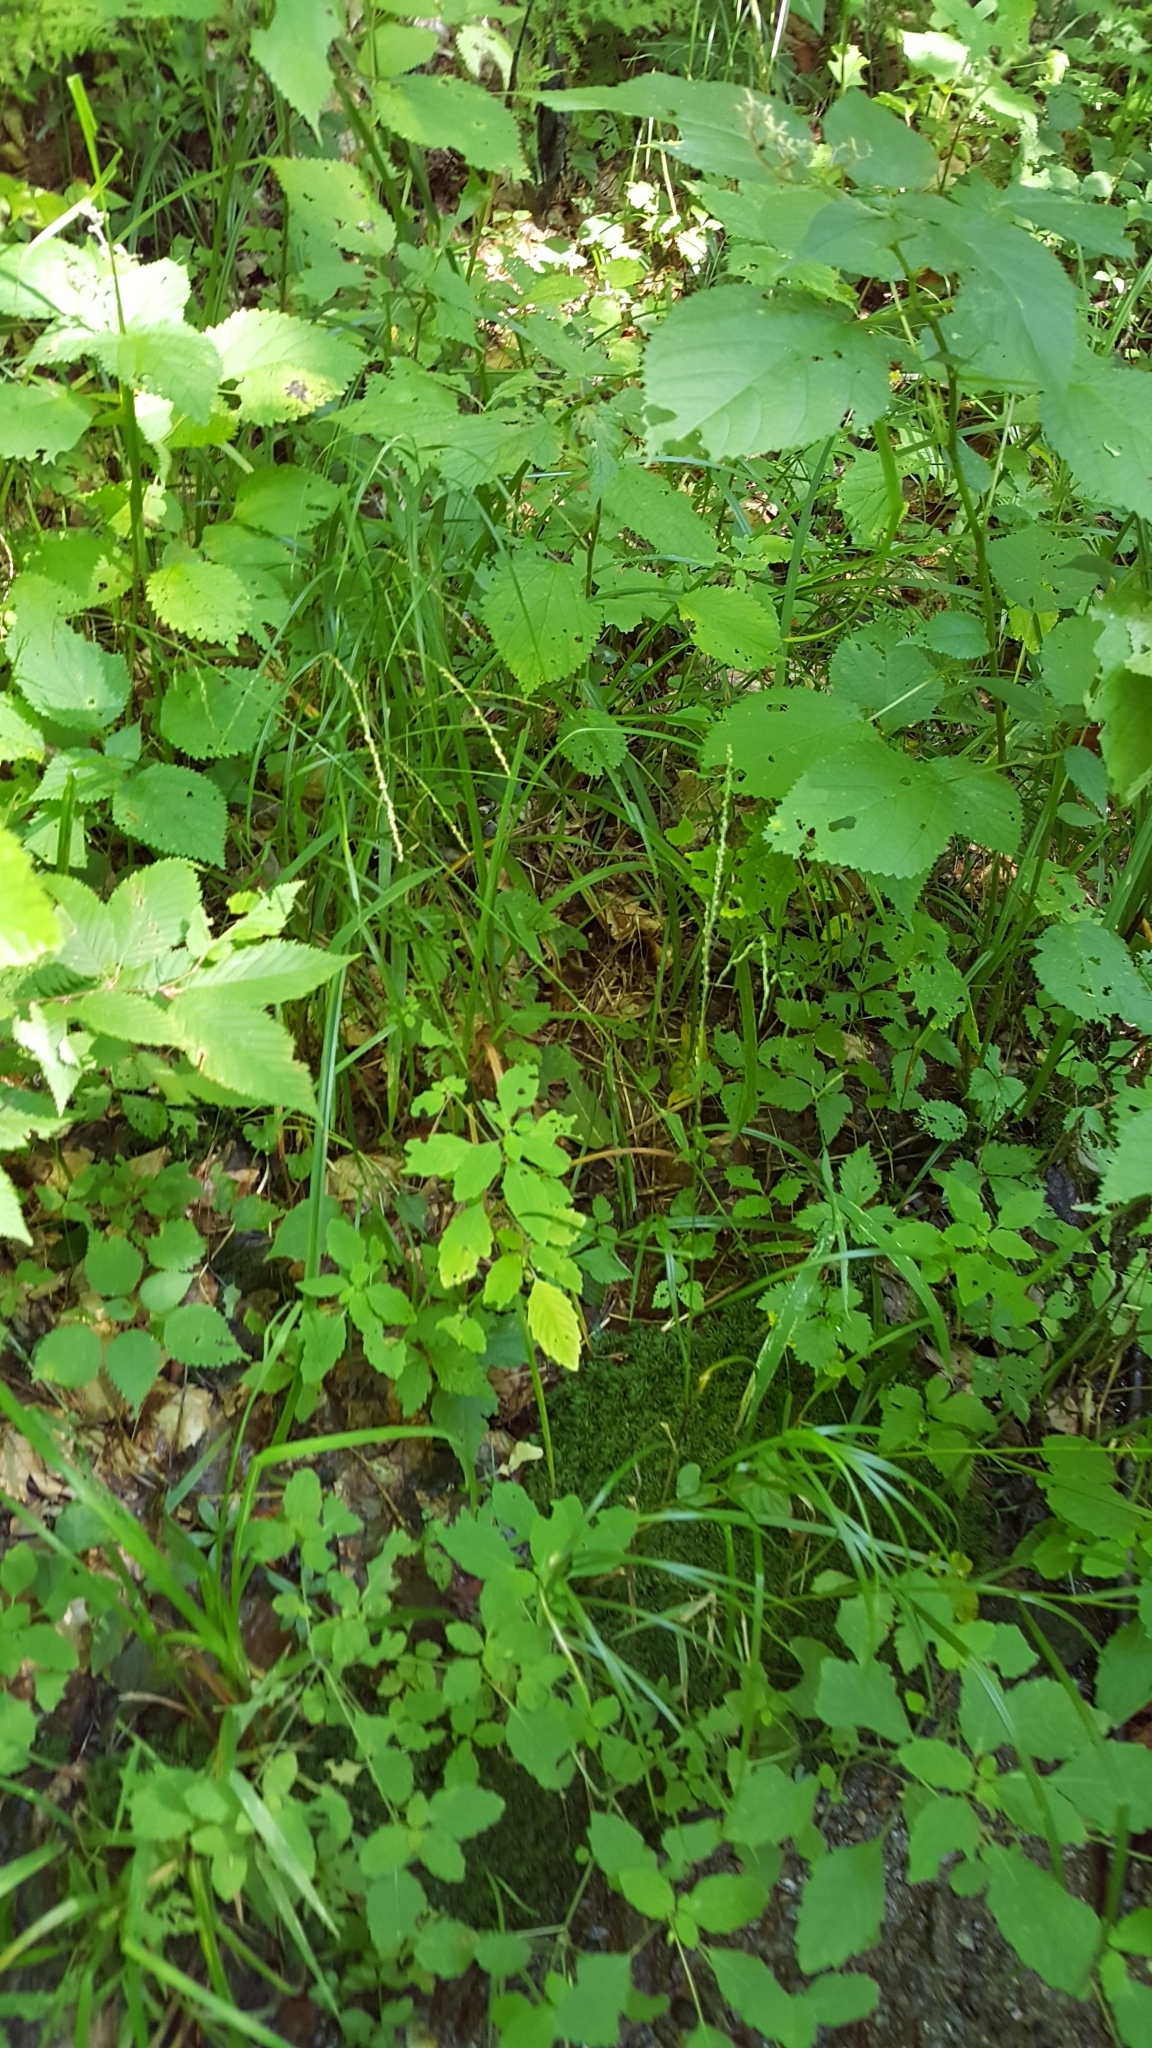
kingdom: Plantae
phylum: Tracheophyta
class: Liliopsida
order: Poales
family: Poaceae
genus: Glyceria
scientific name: Glyceria melicaria
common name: Long mannagrass
